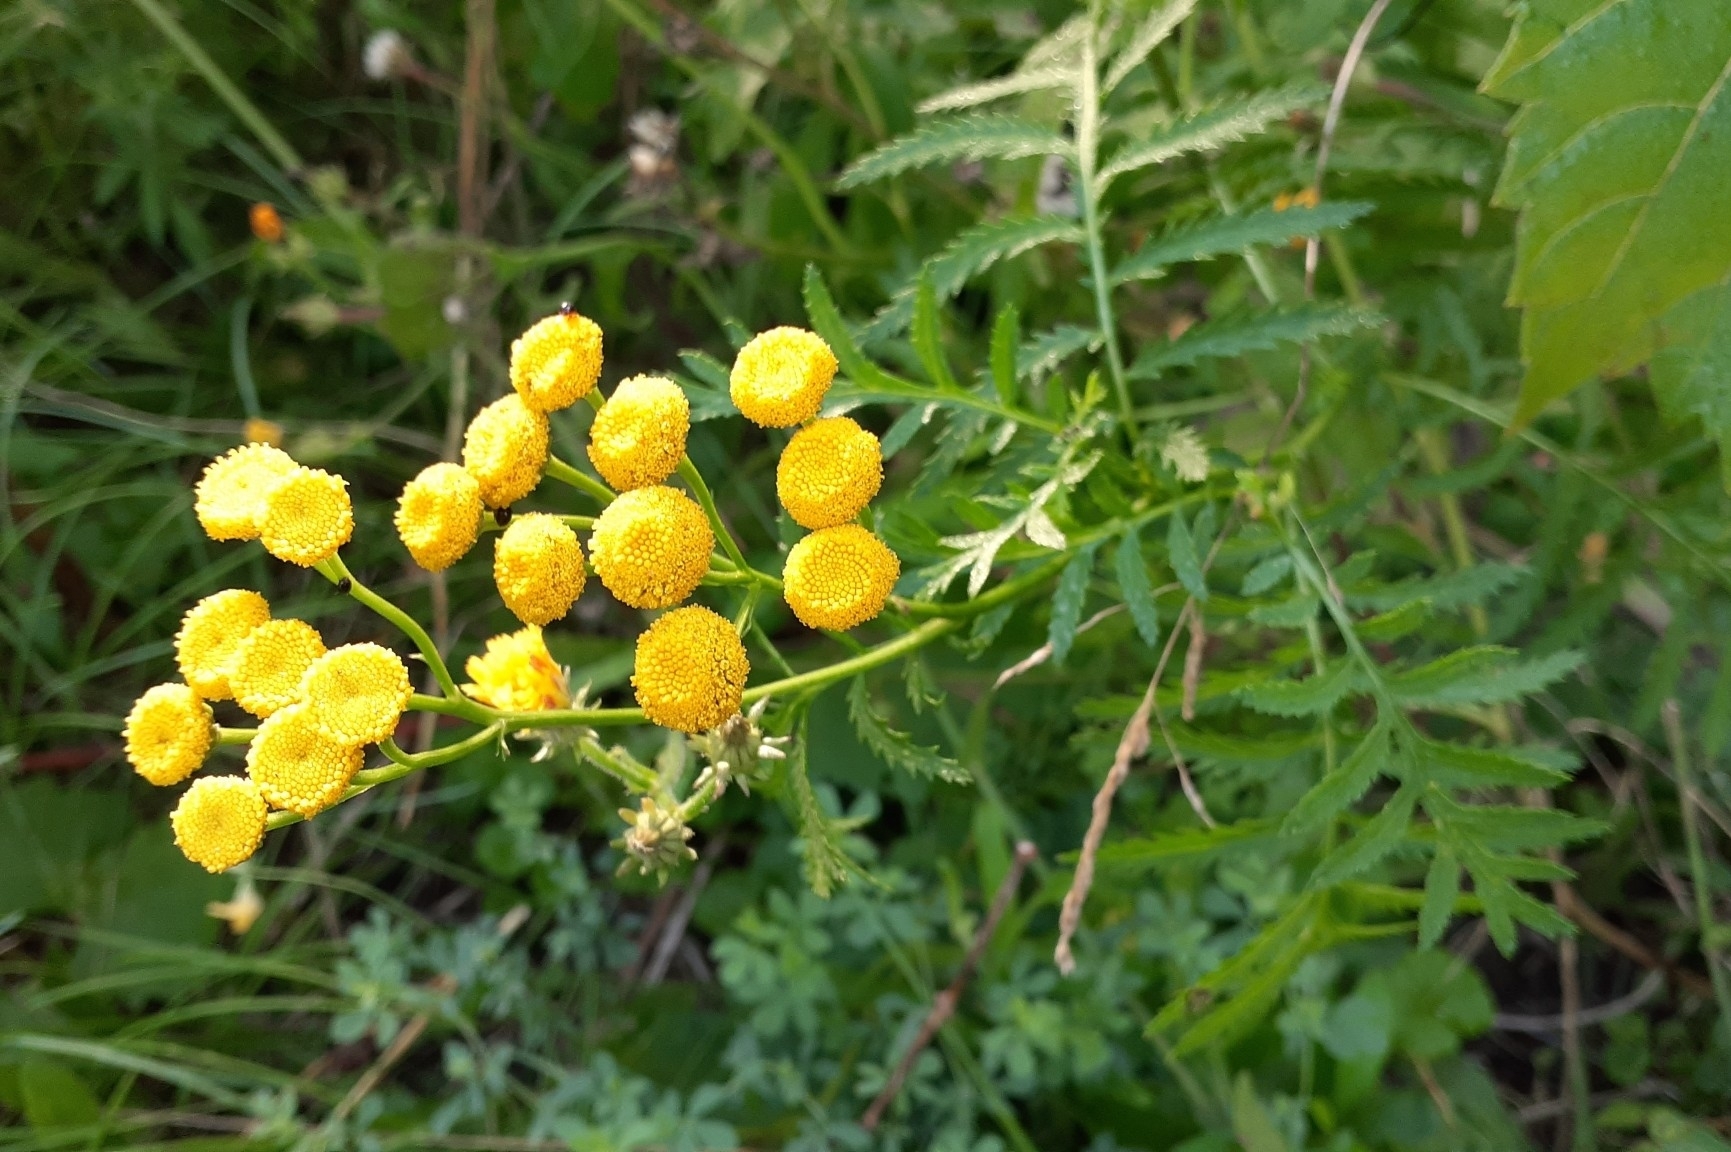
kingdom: Plantae
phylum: Tracheophyta
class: Magnoliopsida
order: Asterales
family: Asteraceae
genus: Tanacetum
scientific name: Tanacetum vulgare
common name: Common tansy
